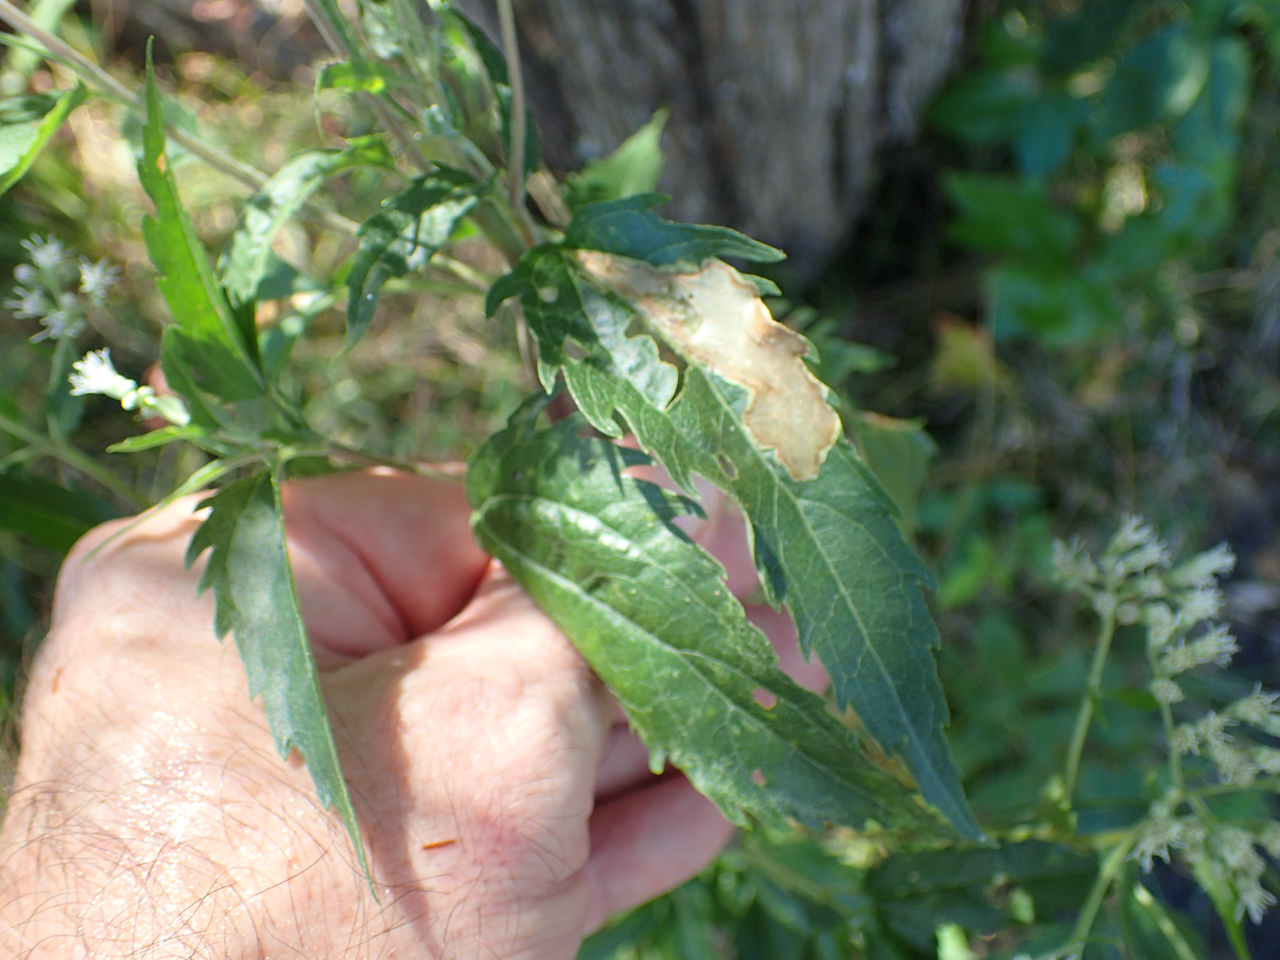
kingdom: Plantae
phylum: Tracheophyta
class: Magnoliopsida
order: Asterales
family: Asteraceae
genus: Eupatorium
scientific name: Eupatorium serotinum
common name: Late boneset
